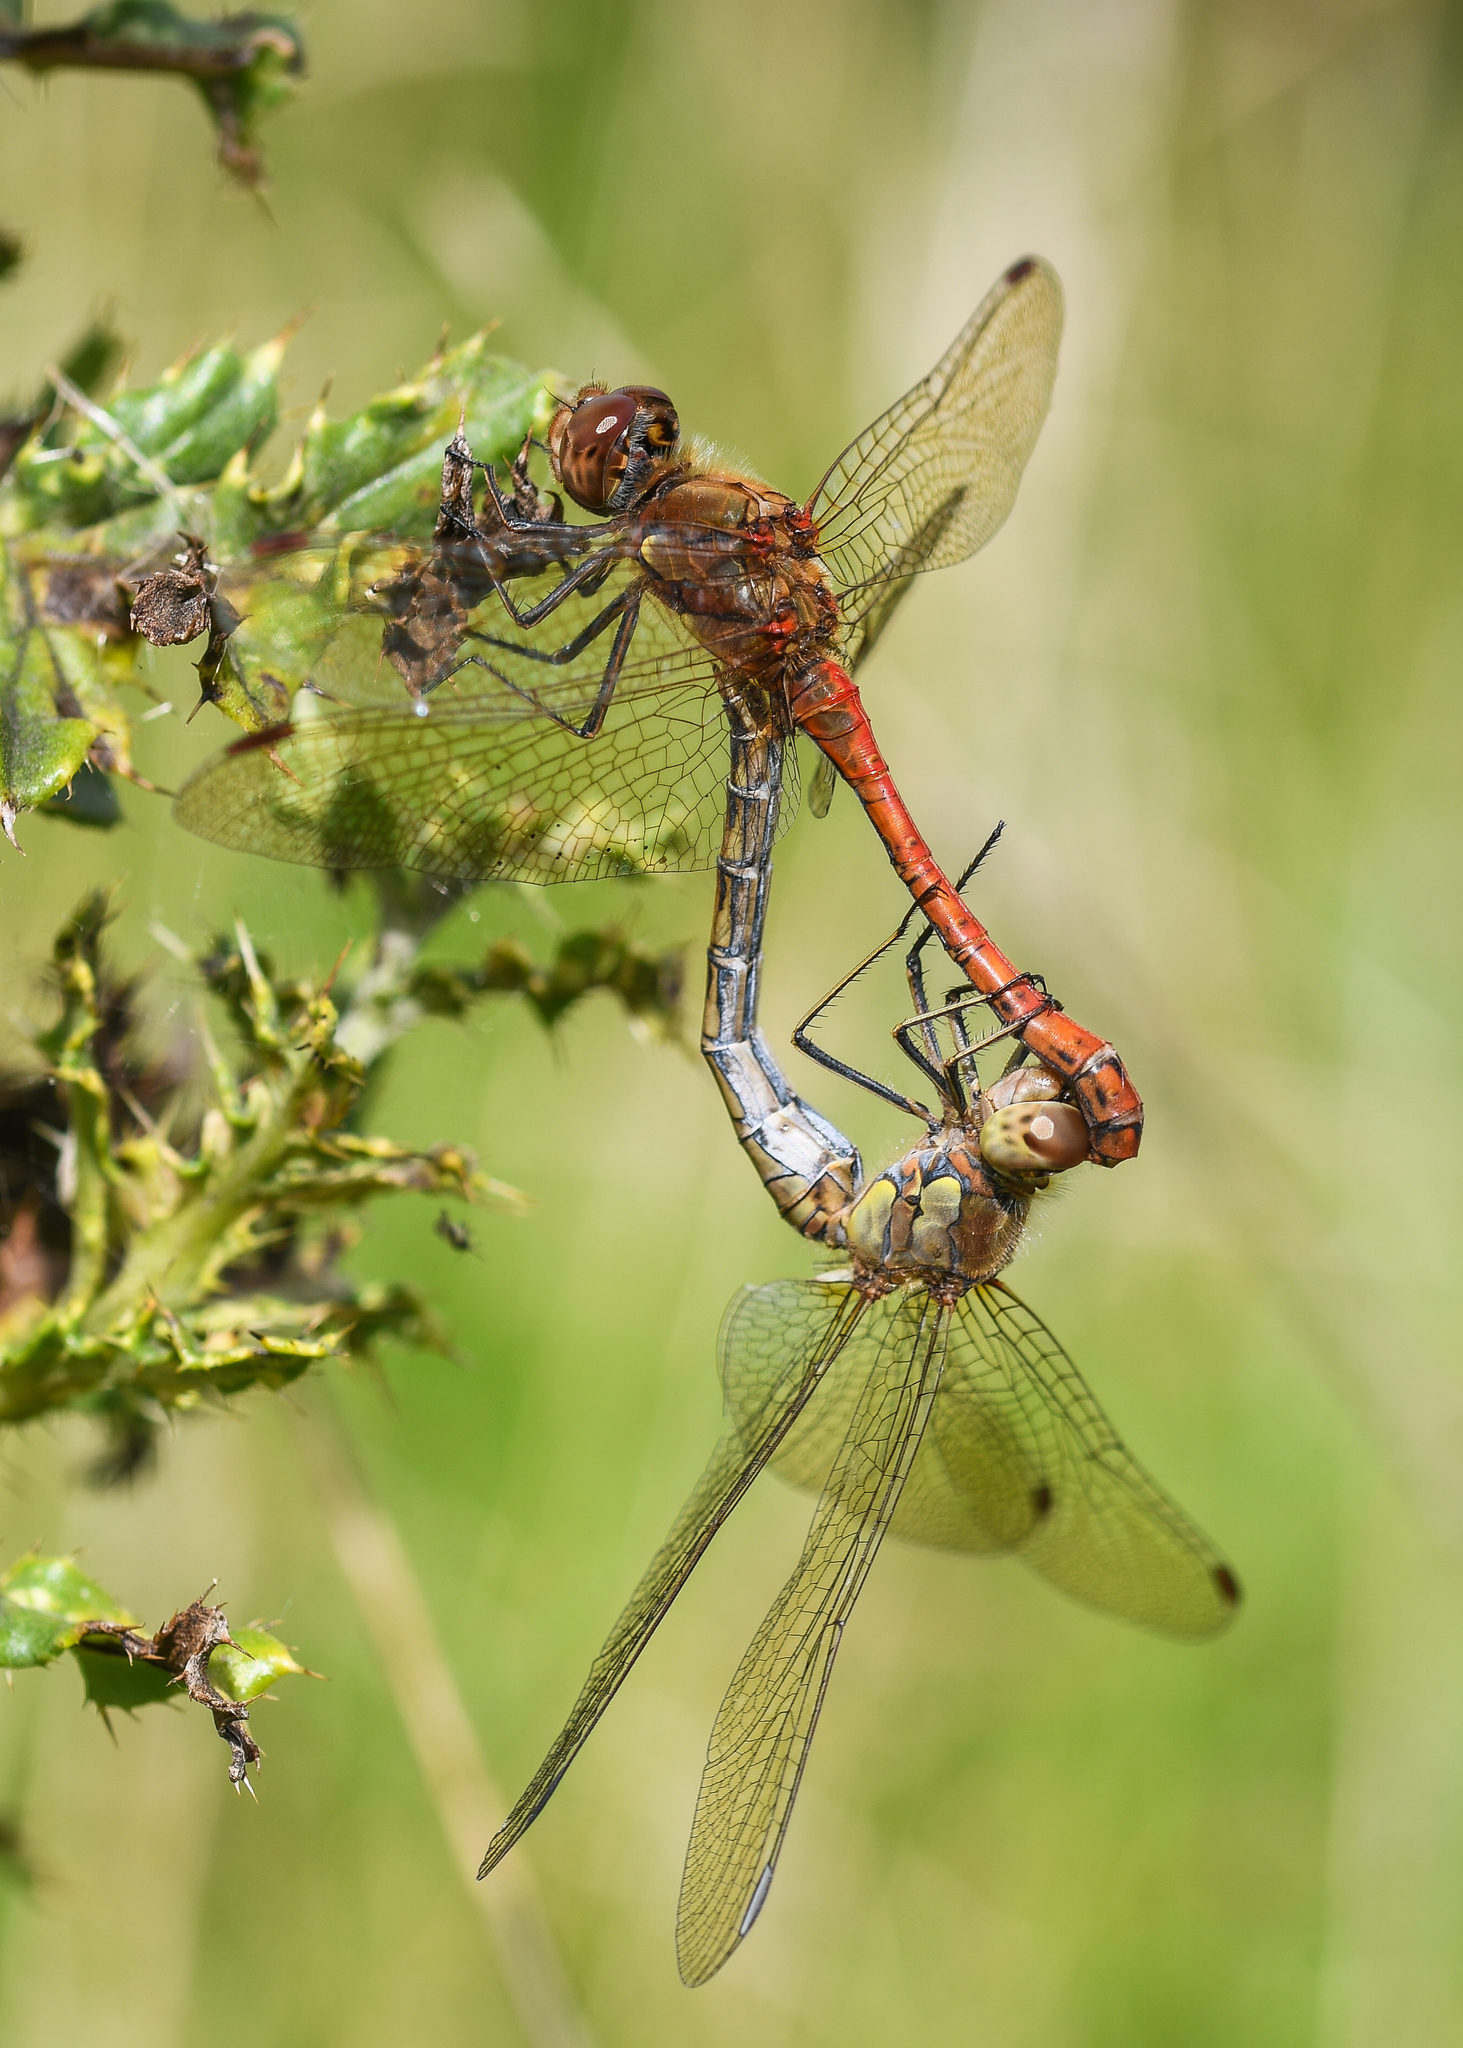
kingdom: Animalia
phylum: Arthropoda
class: Insecta
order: Odonata
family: Libellulidae
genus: Sympetrum
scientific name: Sympetrum striolatum
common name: Common darter
